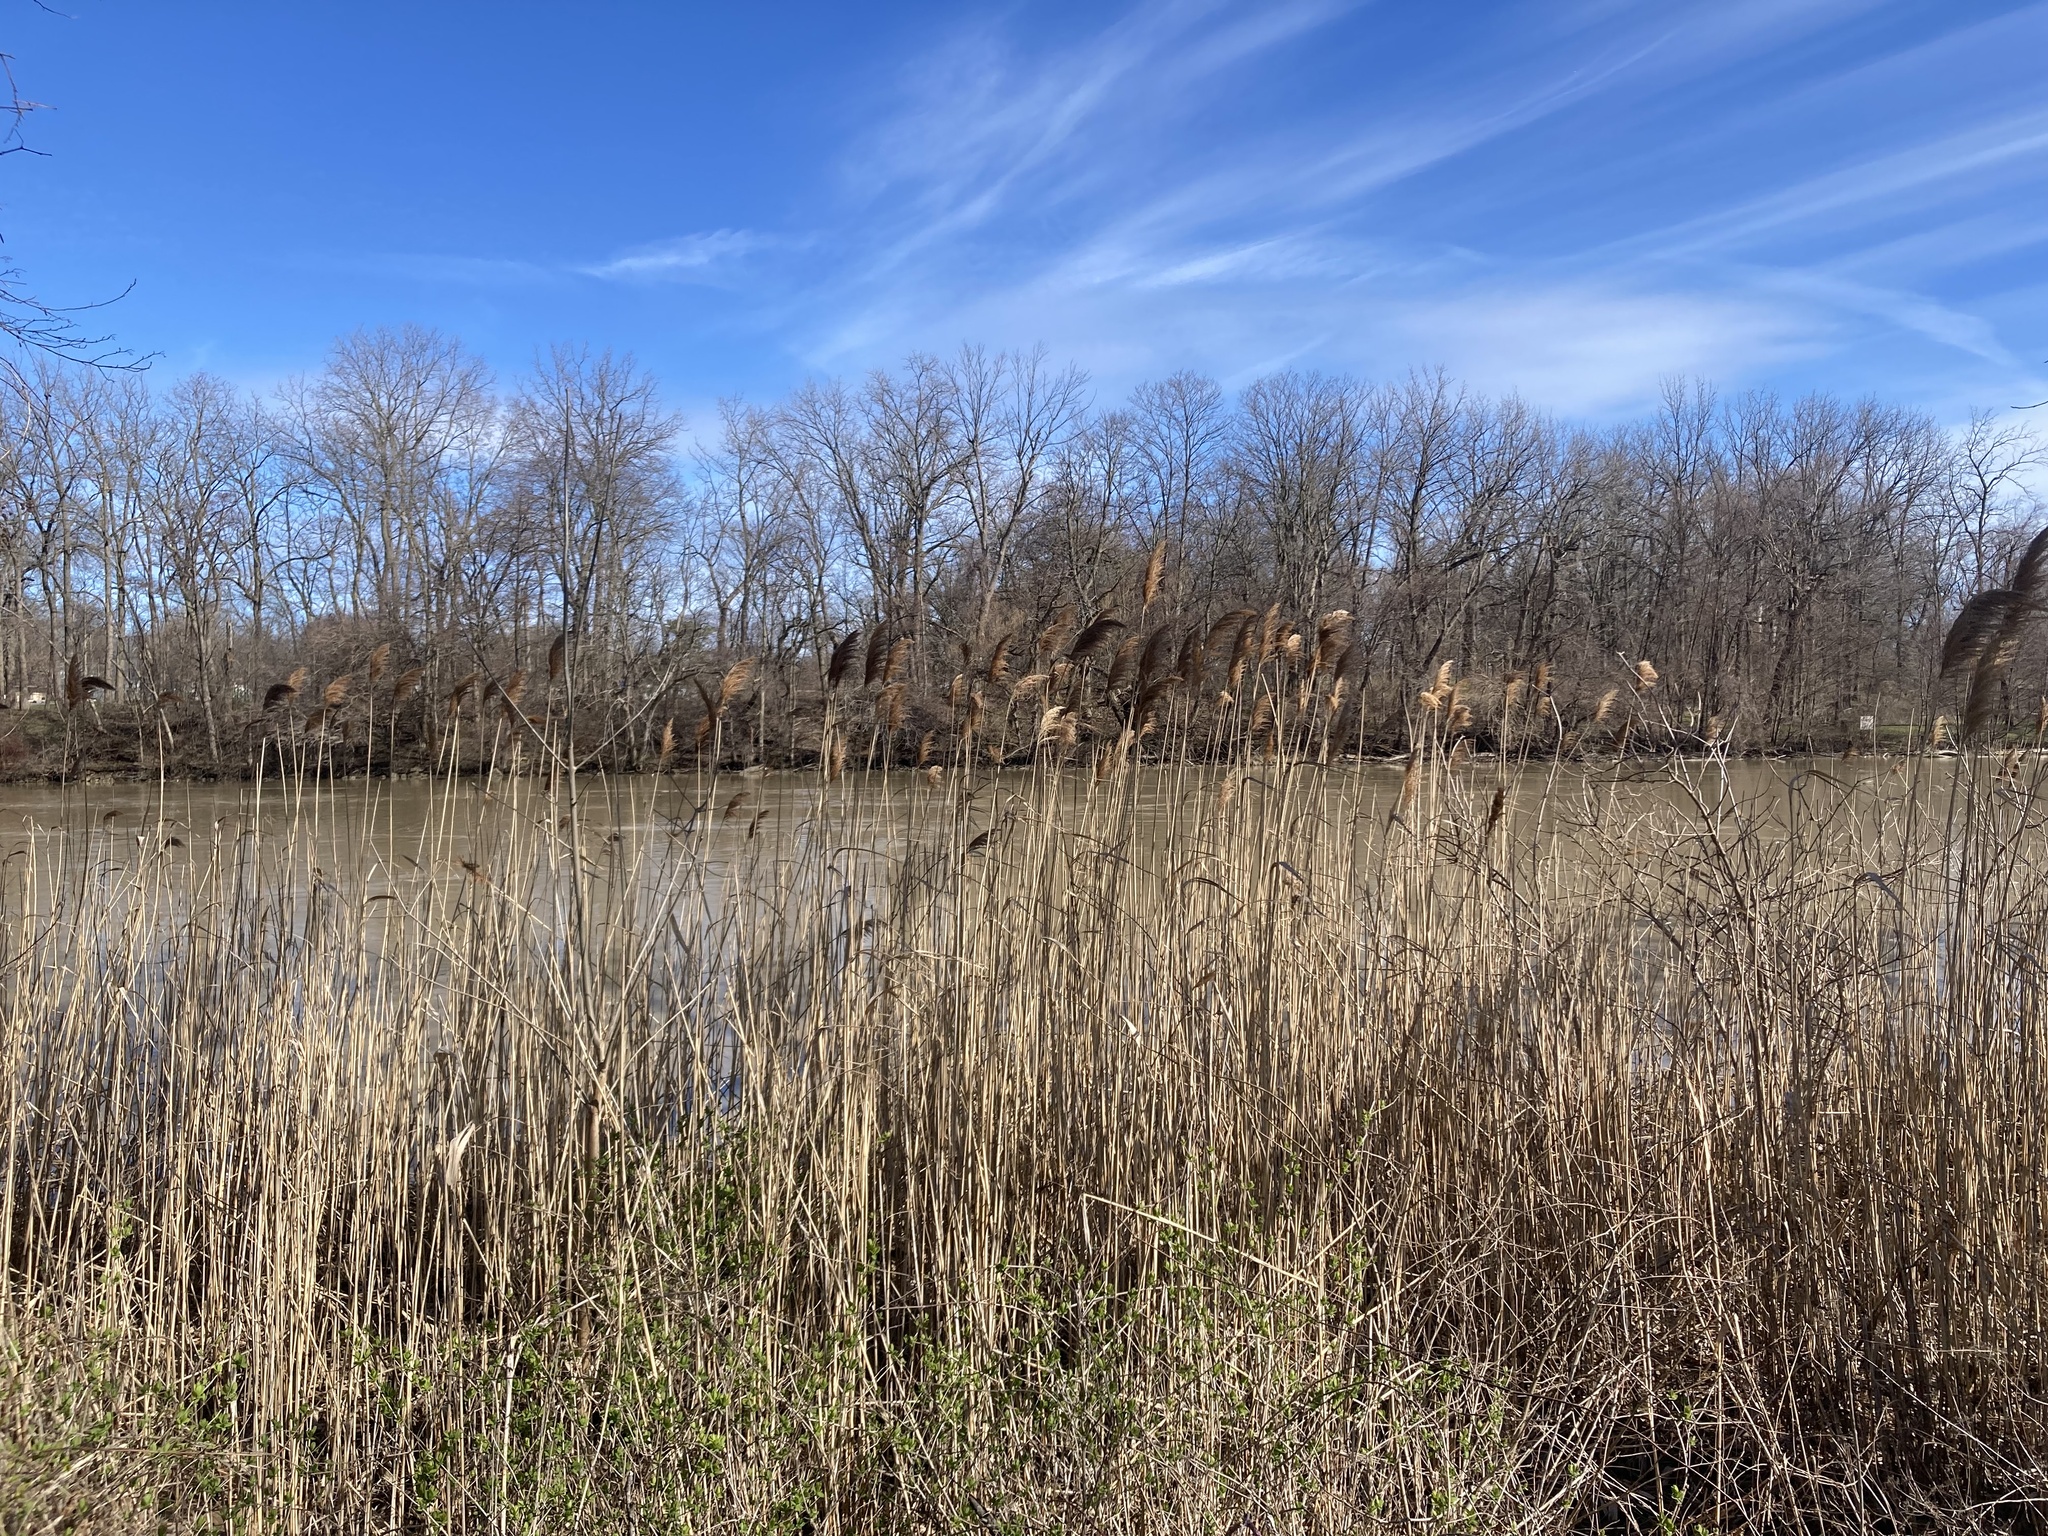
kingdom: Plantae
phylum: Tracheophyta
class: Liliopsida
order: Poales
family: Poaceae
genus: Phragmites
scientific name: Phragmites australis
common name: Common reed
